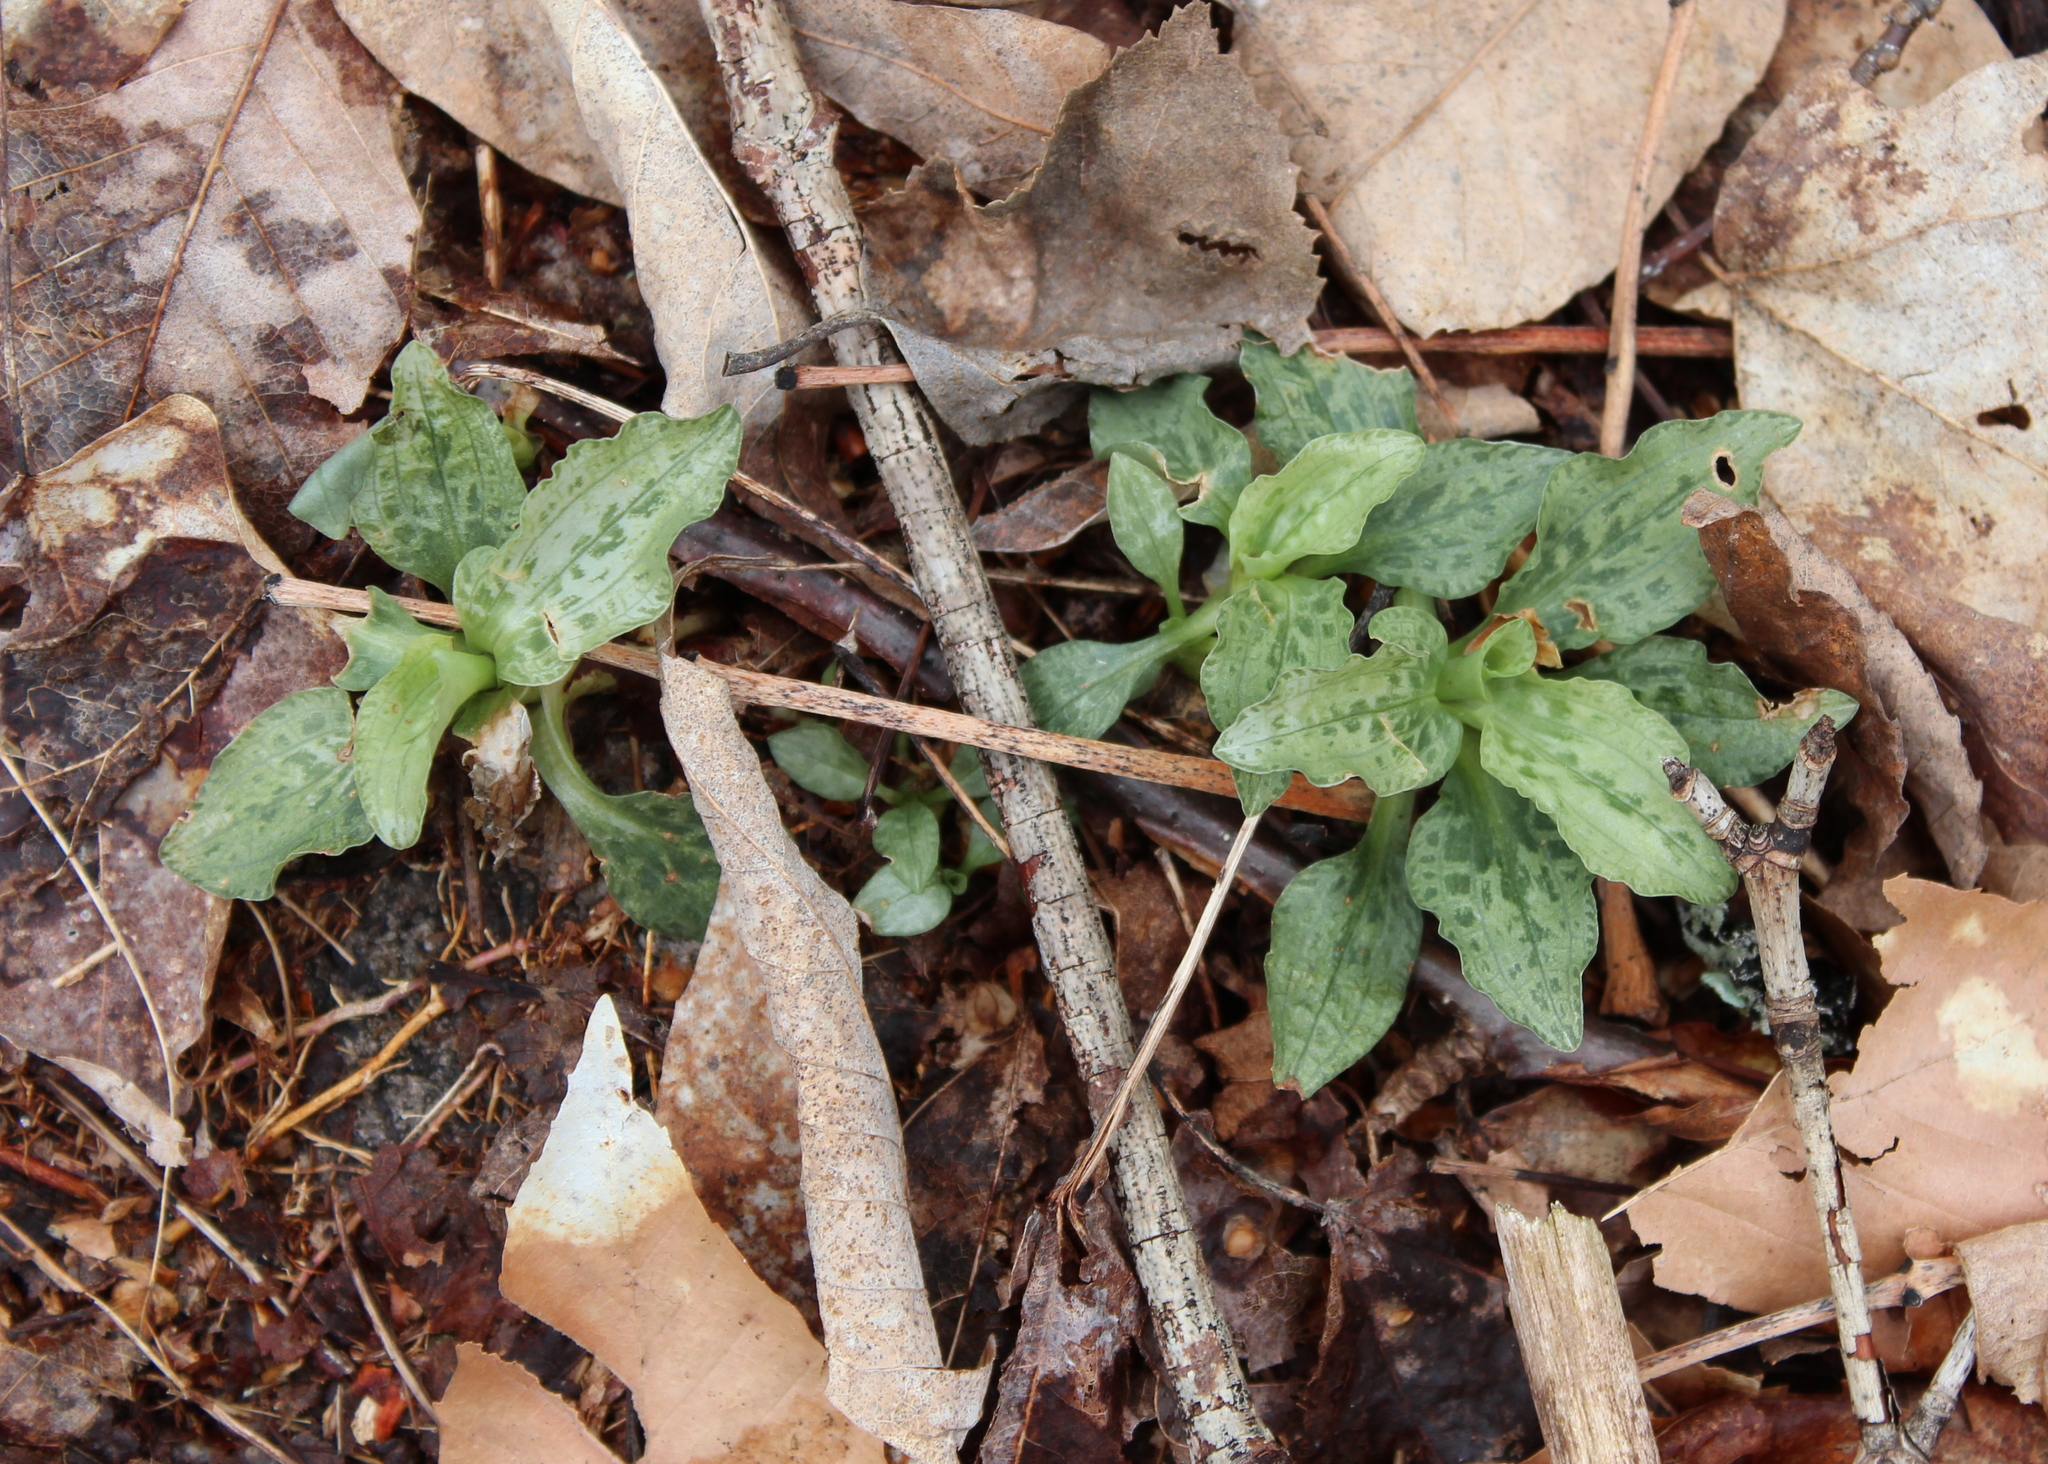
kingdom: Plantae
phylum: Tracheophyta
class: Liliopsida
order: Asparagales
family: Orchidaceae
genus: Goodyera
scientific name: Goodyera tesselata
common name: Checkered rattlesnake-plantain
